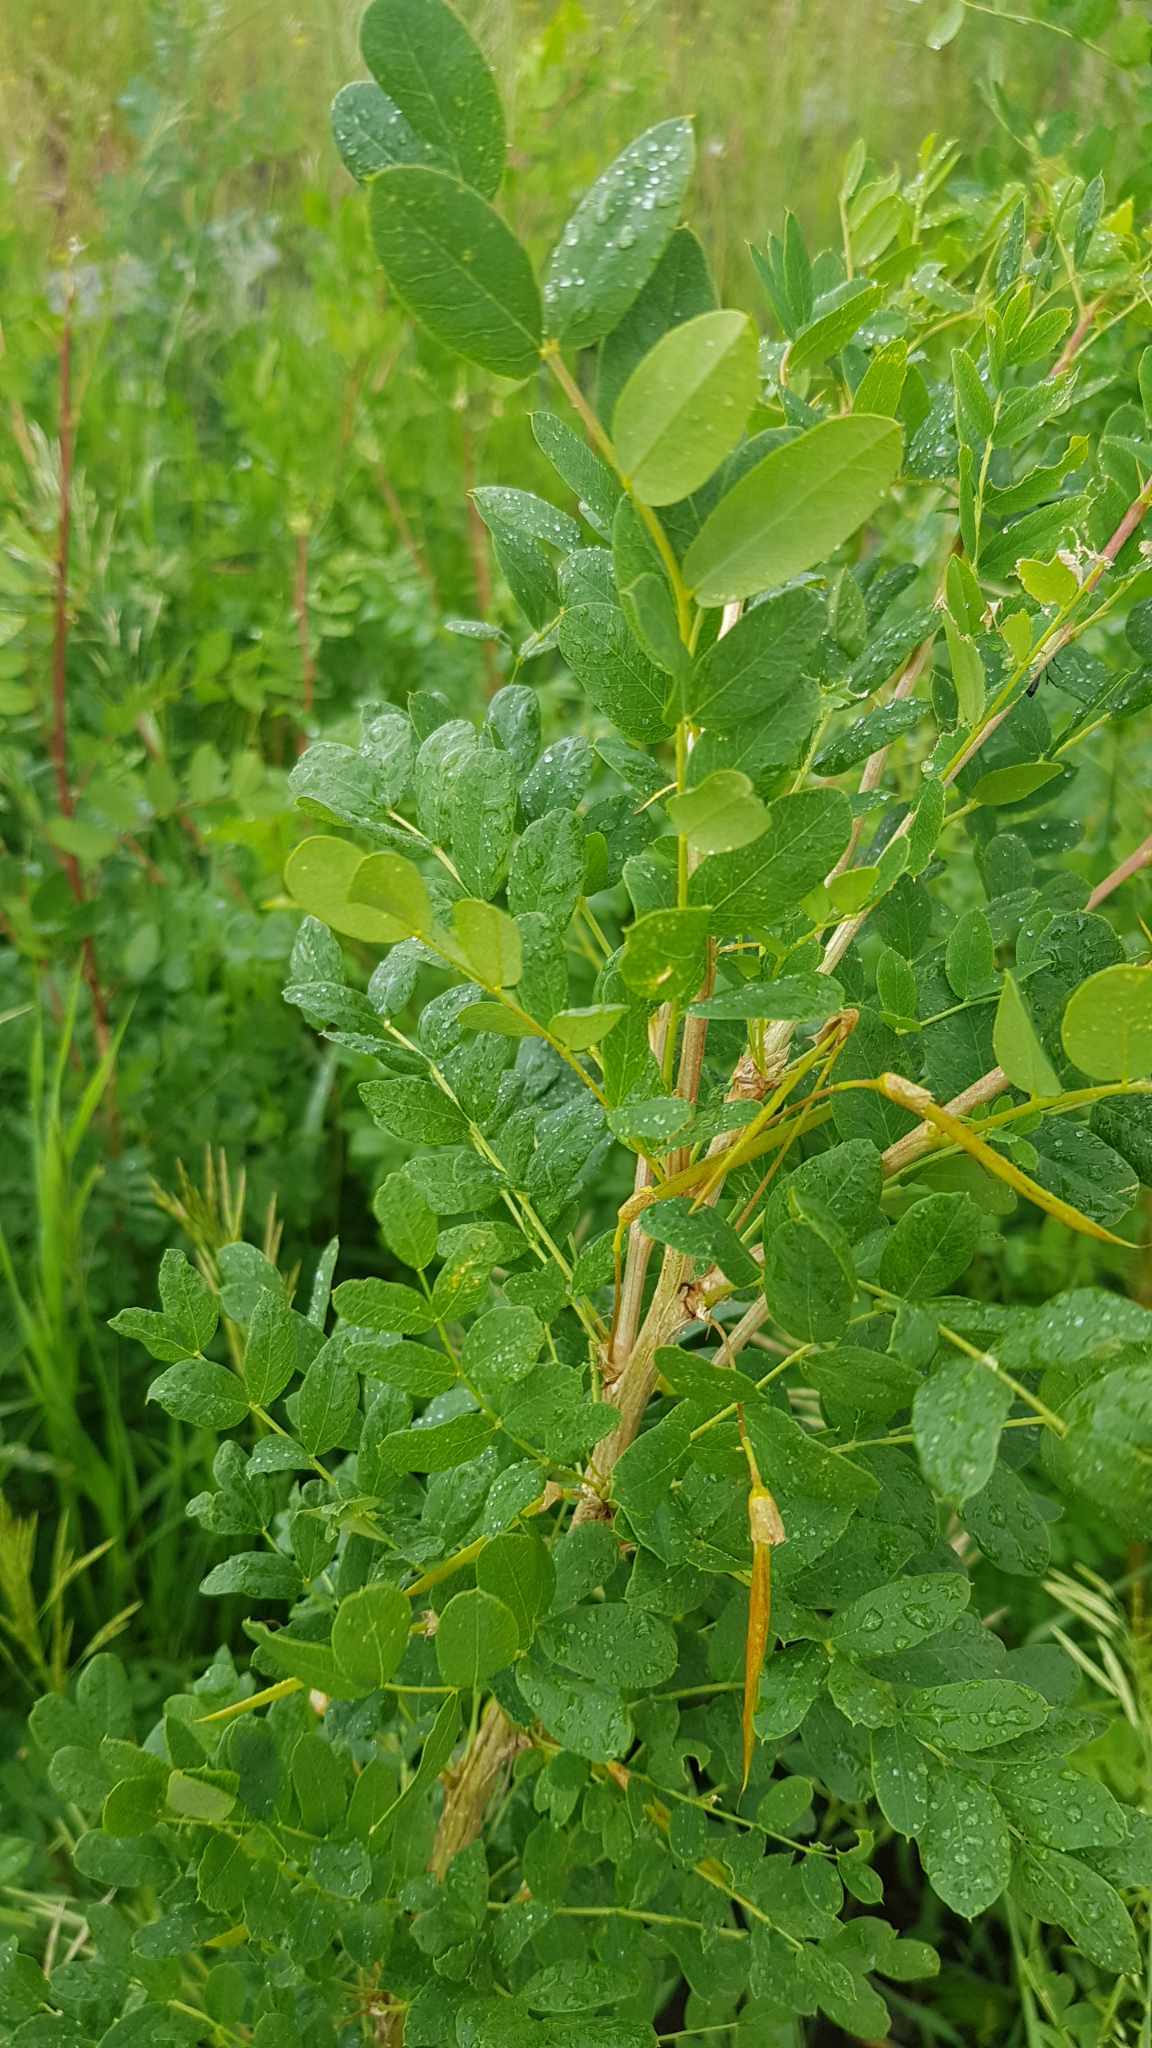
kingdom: Plantae
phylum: Tracheophyta
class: Magnoliopsida
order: Fabales
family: Fabaceae
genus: Caragana
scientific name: Caragana arborescens
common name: Siberian peashrub
